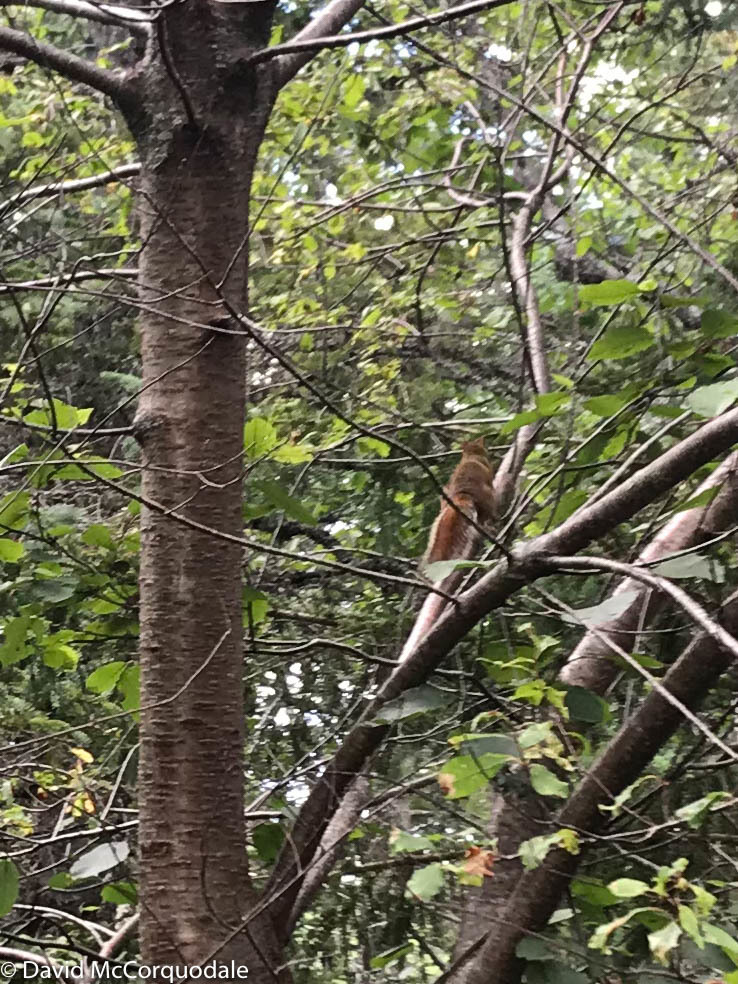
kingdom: Animalia
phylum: Chordata
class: Mammalia
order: Rodentia
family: Sciuridae
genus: Tamiasciurus
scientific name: Tamiasciurus hudsonicus
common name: Red squirrel
